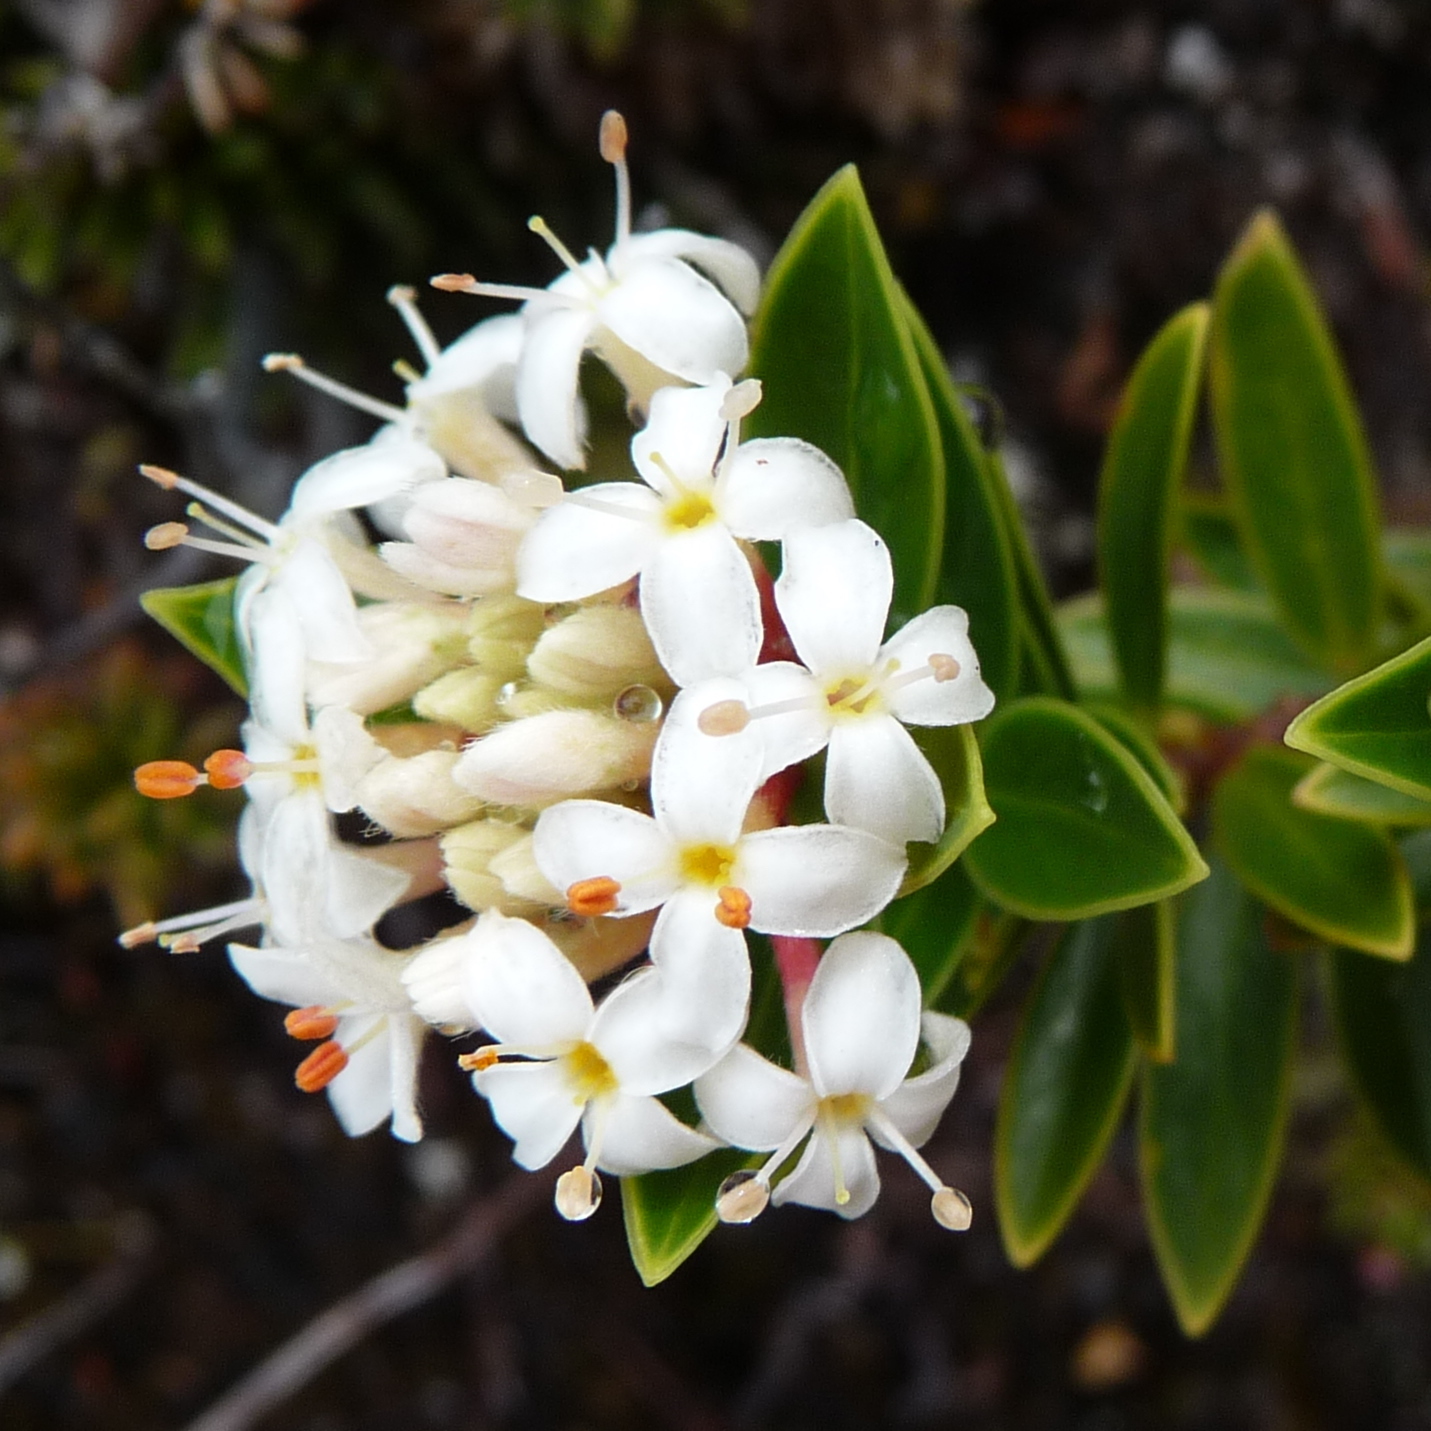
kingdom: Plantae
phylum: Tracheophyta
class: Magnoliopsida
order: Malvales
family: Thymelaeaceae
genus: Pimelea
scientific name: Pimelea gnidia
